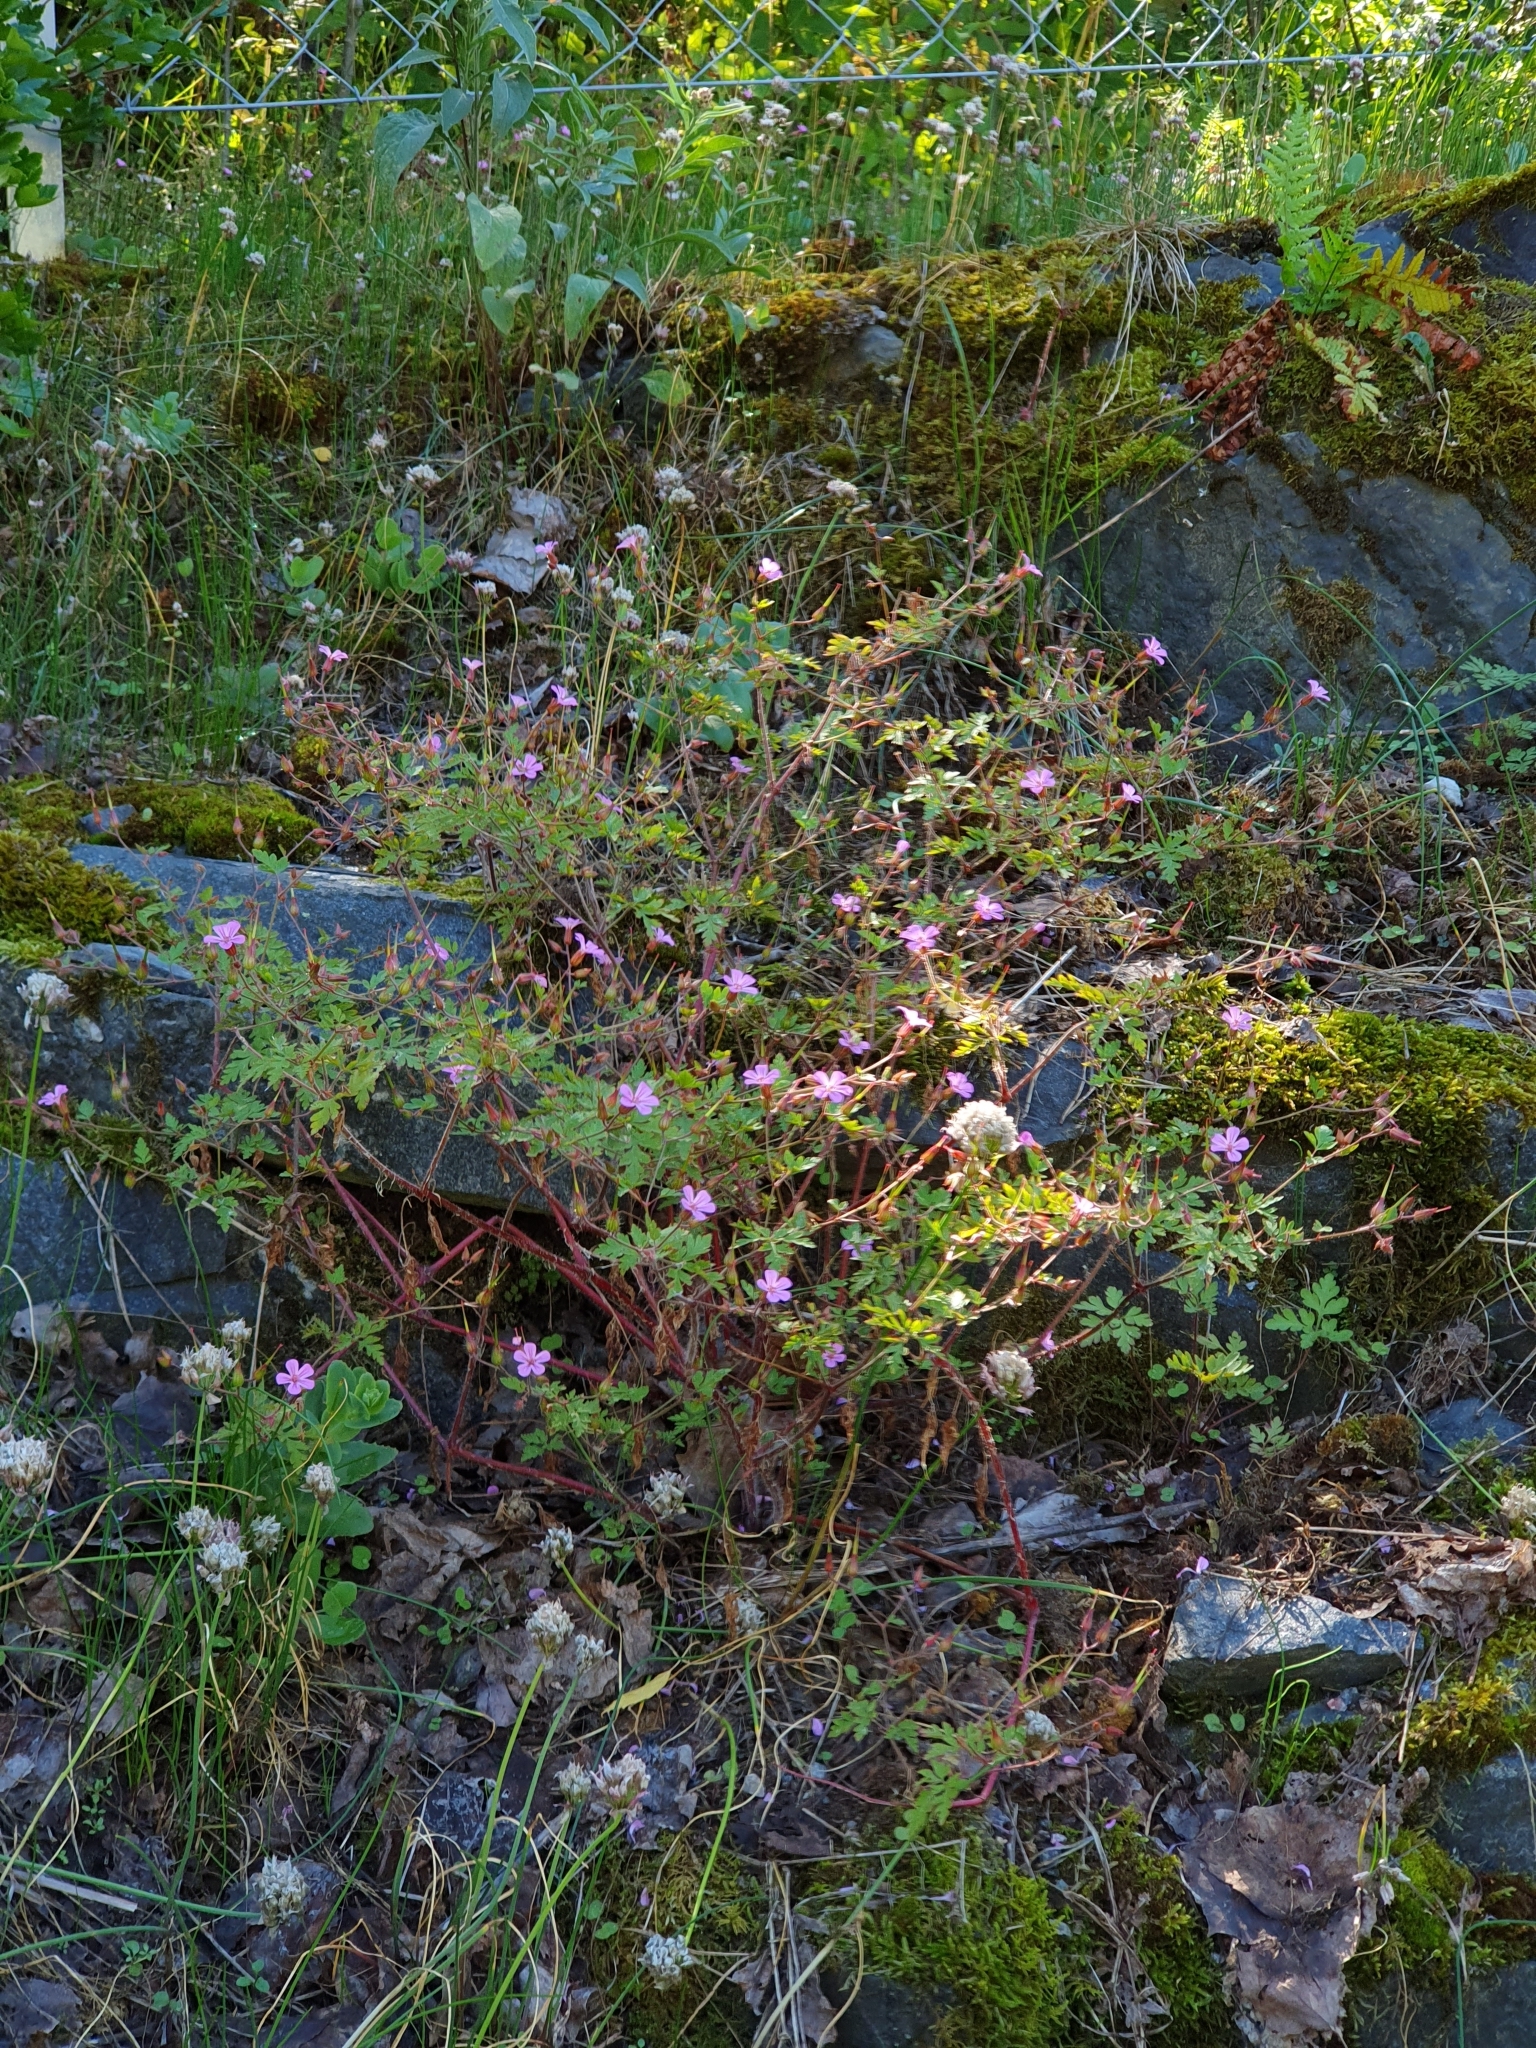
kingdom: Plantae
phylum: Tracheophyta
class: Magnoliopsida
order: Geraniales
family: Geraniaceae
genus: Geranium
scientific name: Geranium robertianum
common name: Herb-robert
